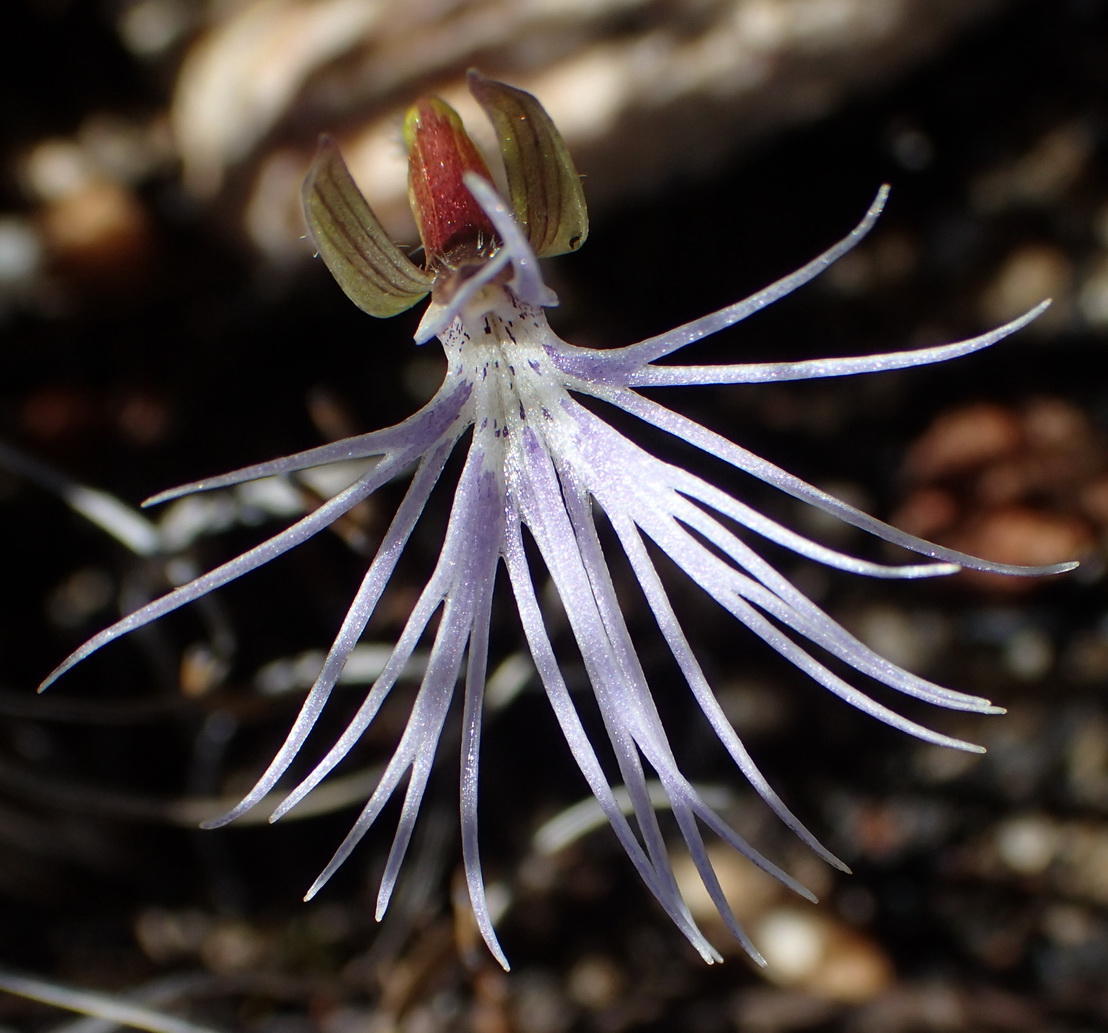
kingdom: Plantae
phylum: Tracheophyta
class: Liliopsida
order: Asparagales
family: Orchidaceae
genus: Holothrix
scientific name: Holothrix burmanniana
